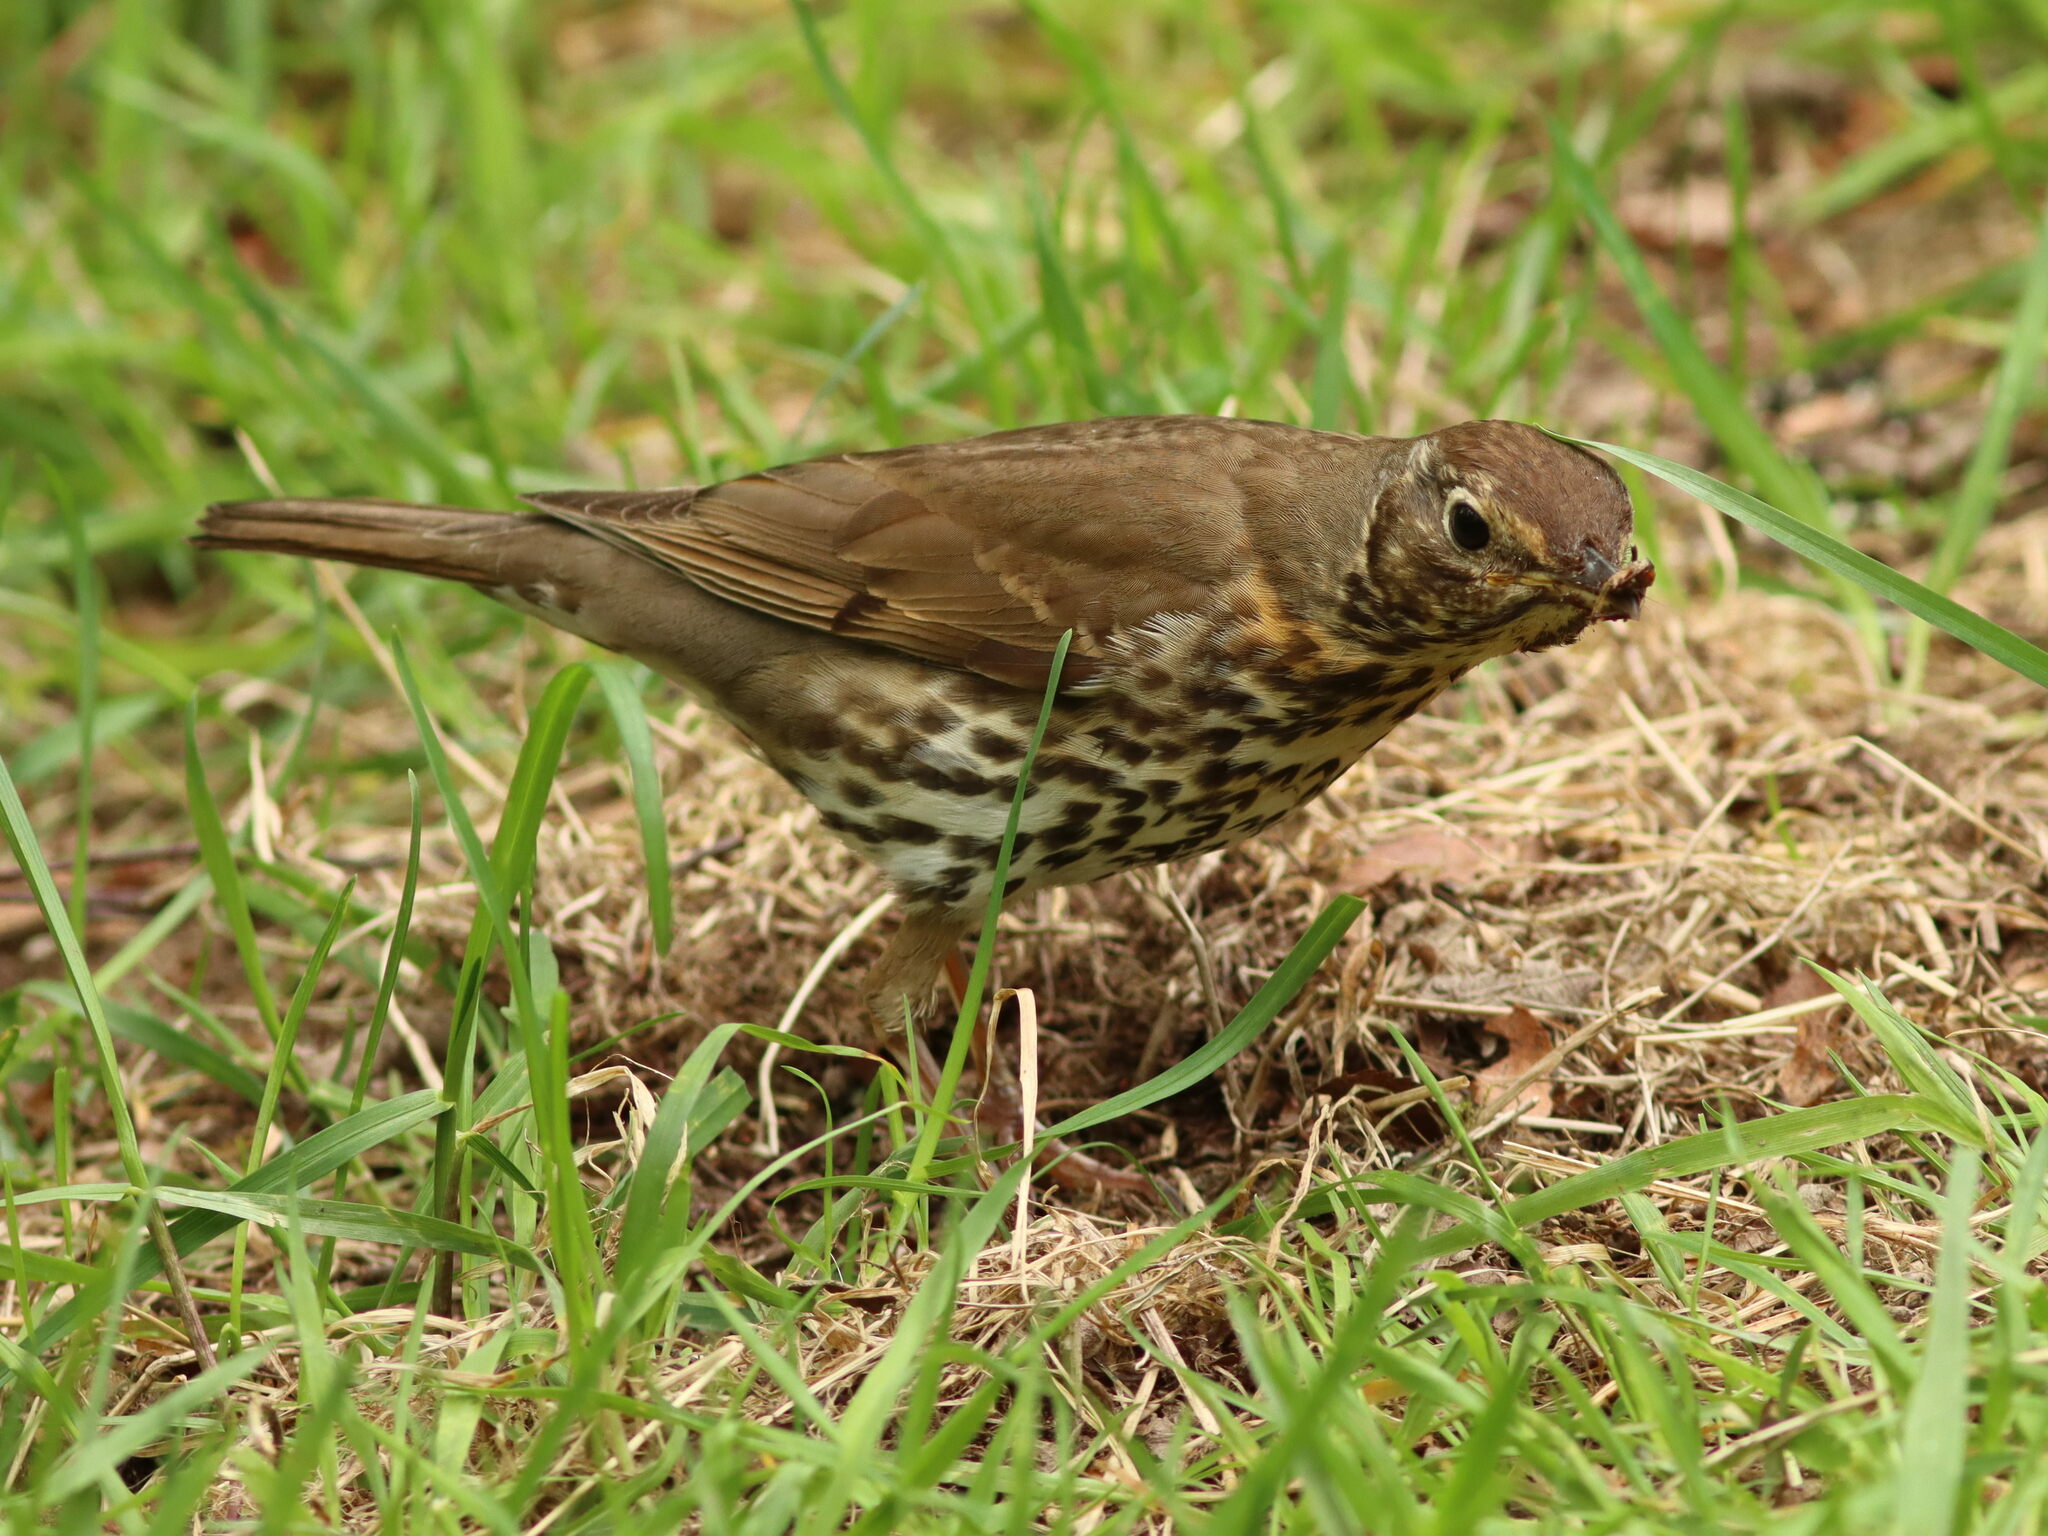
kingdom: Animalia
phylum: Chordata
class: Aves
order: Passeriformes
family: Turdidae
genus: Turdus
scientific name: Turdus philomelos
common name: Song thrush
